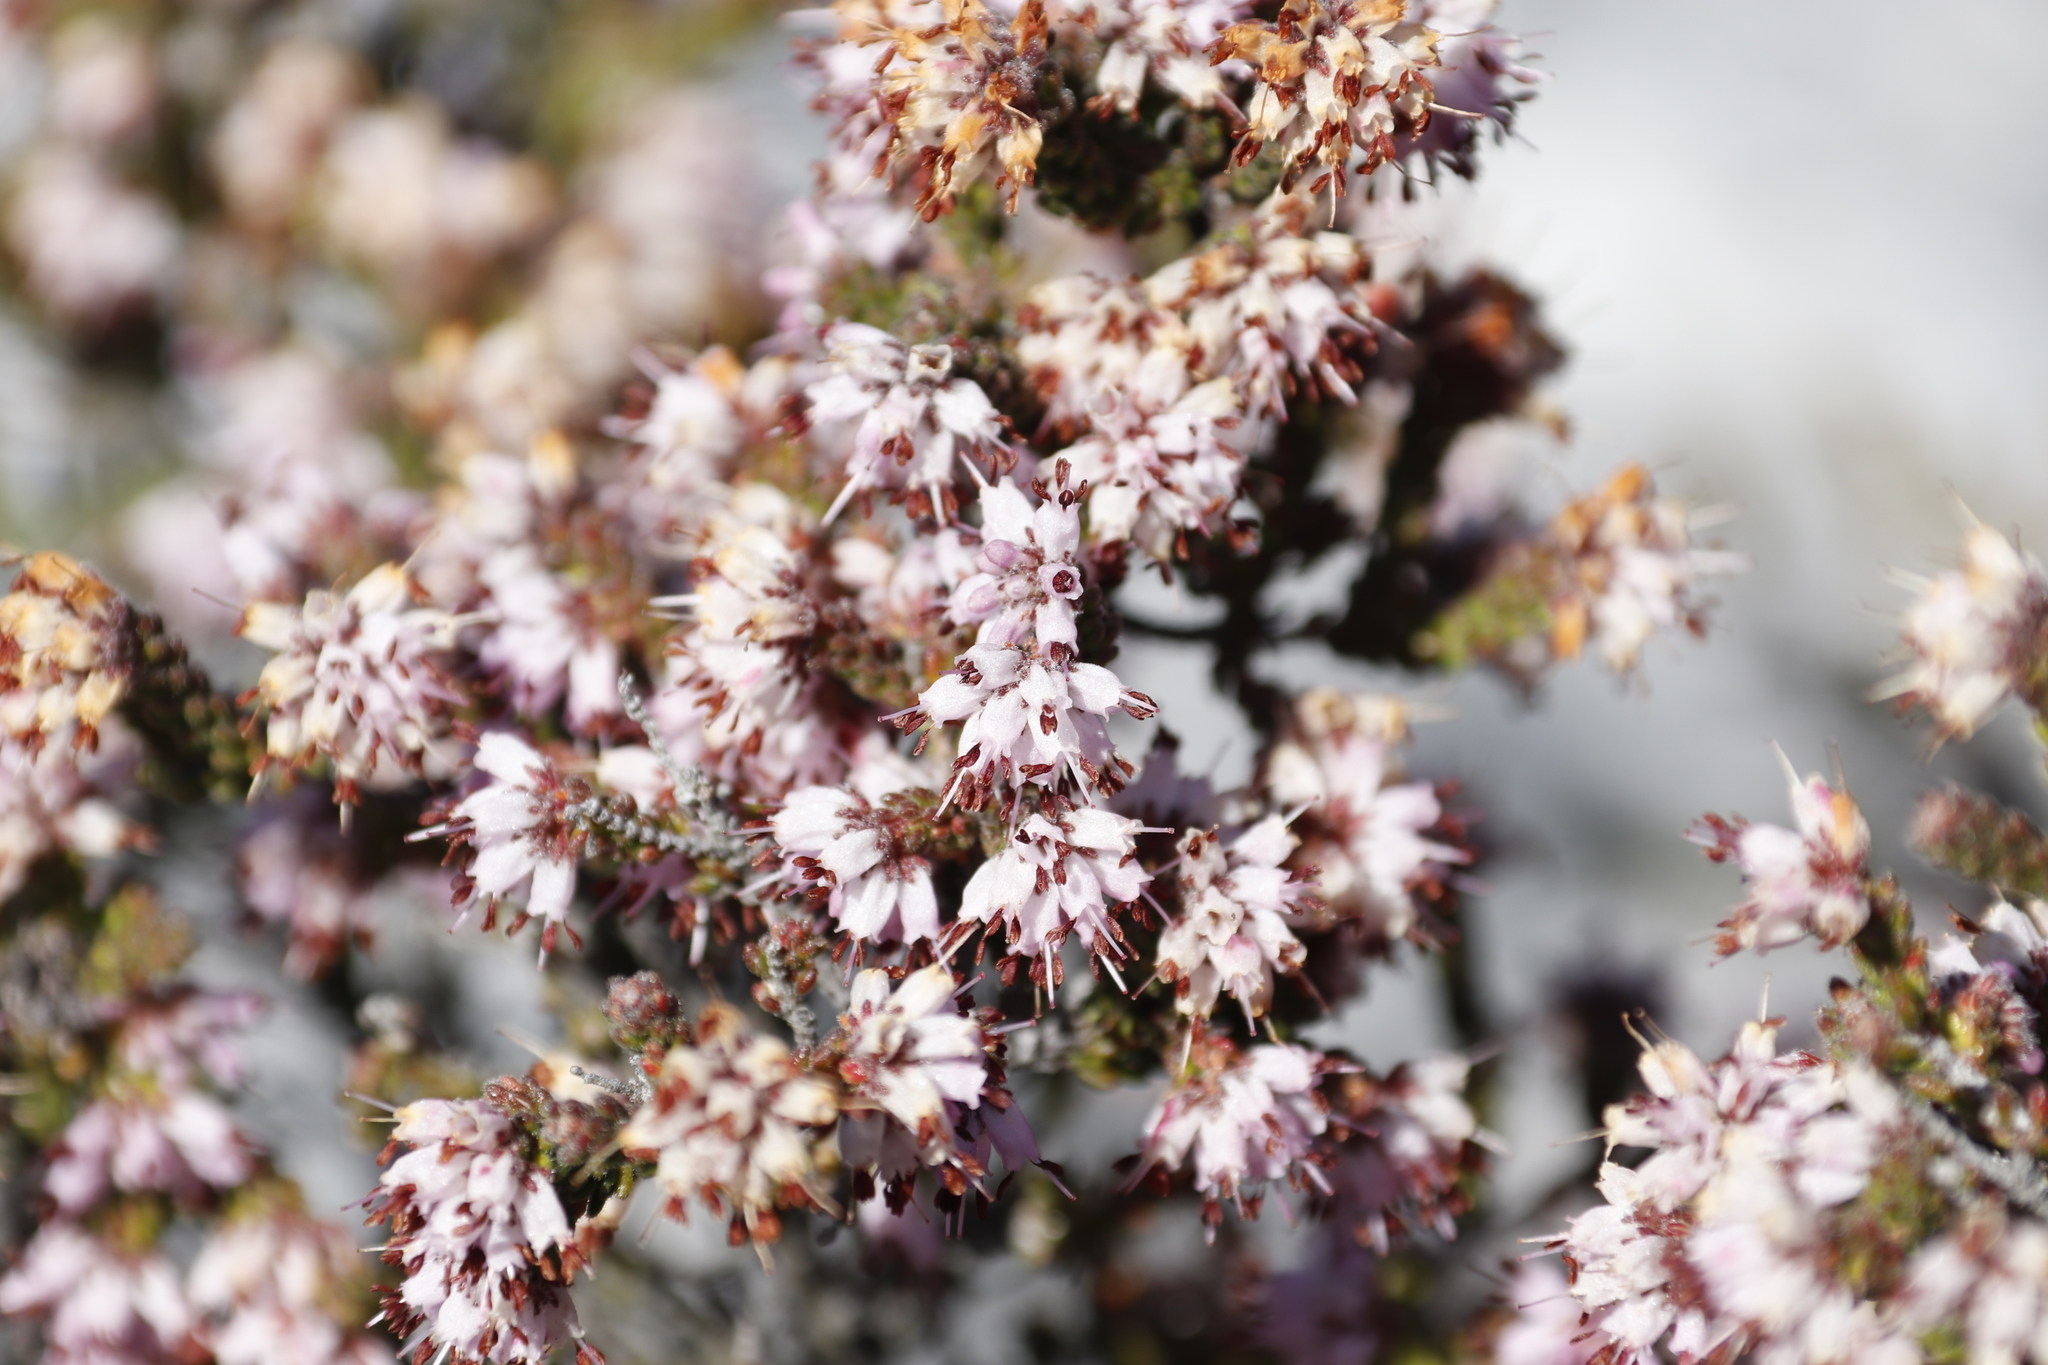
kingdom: Plantae
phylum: Tracheophyta
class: Magnoliopsida
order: Ericales
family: Ericaceae
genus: Erica
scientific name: Erica ericoides
